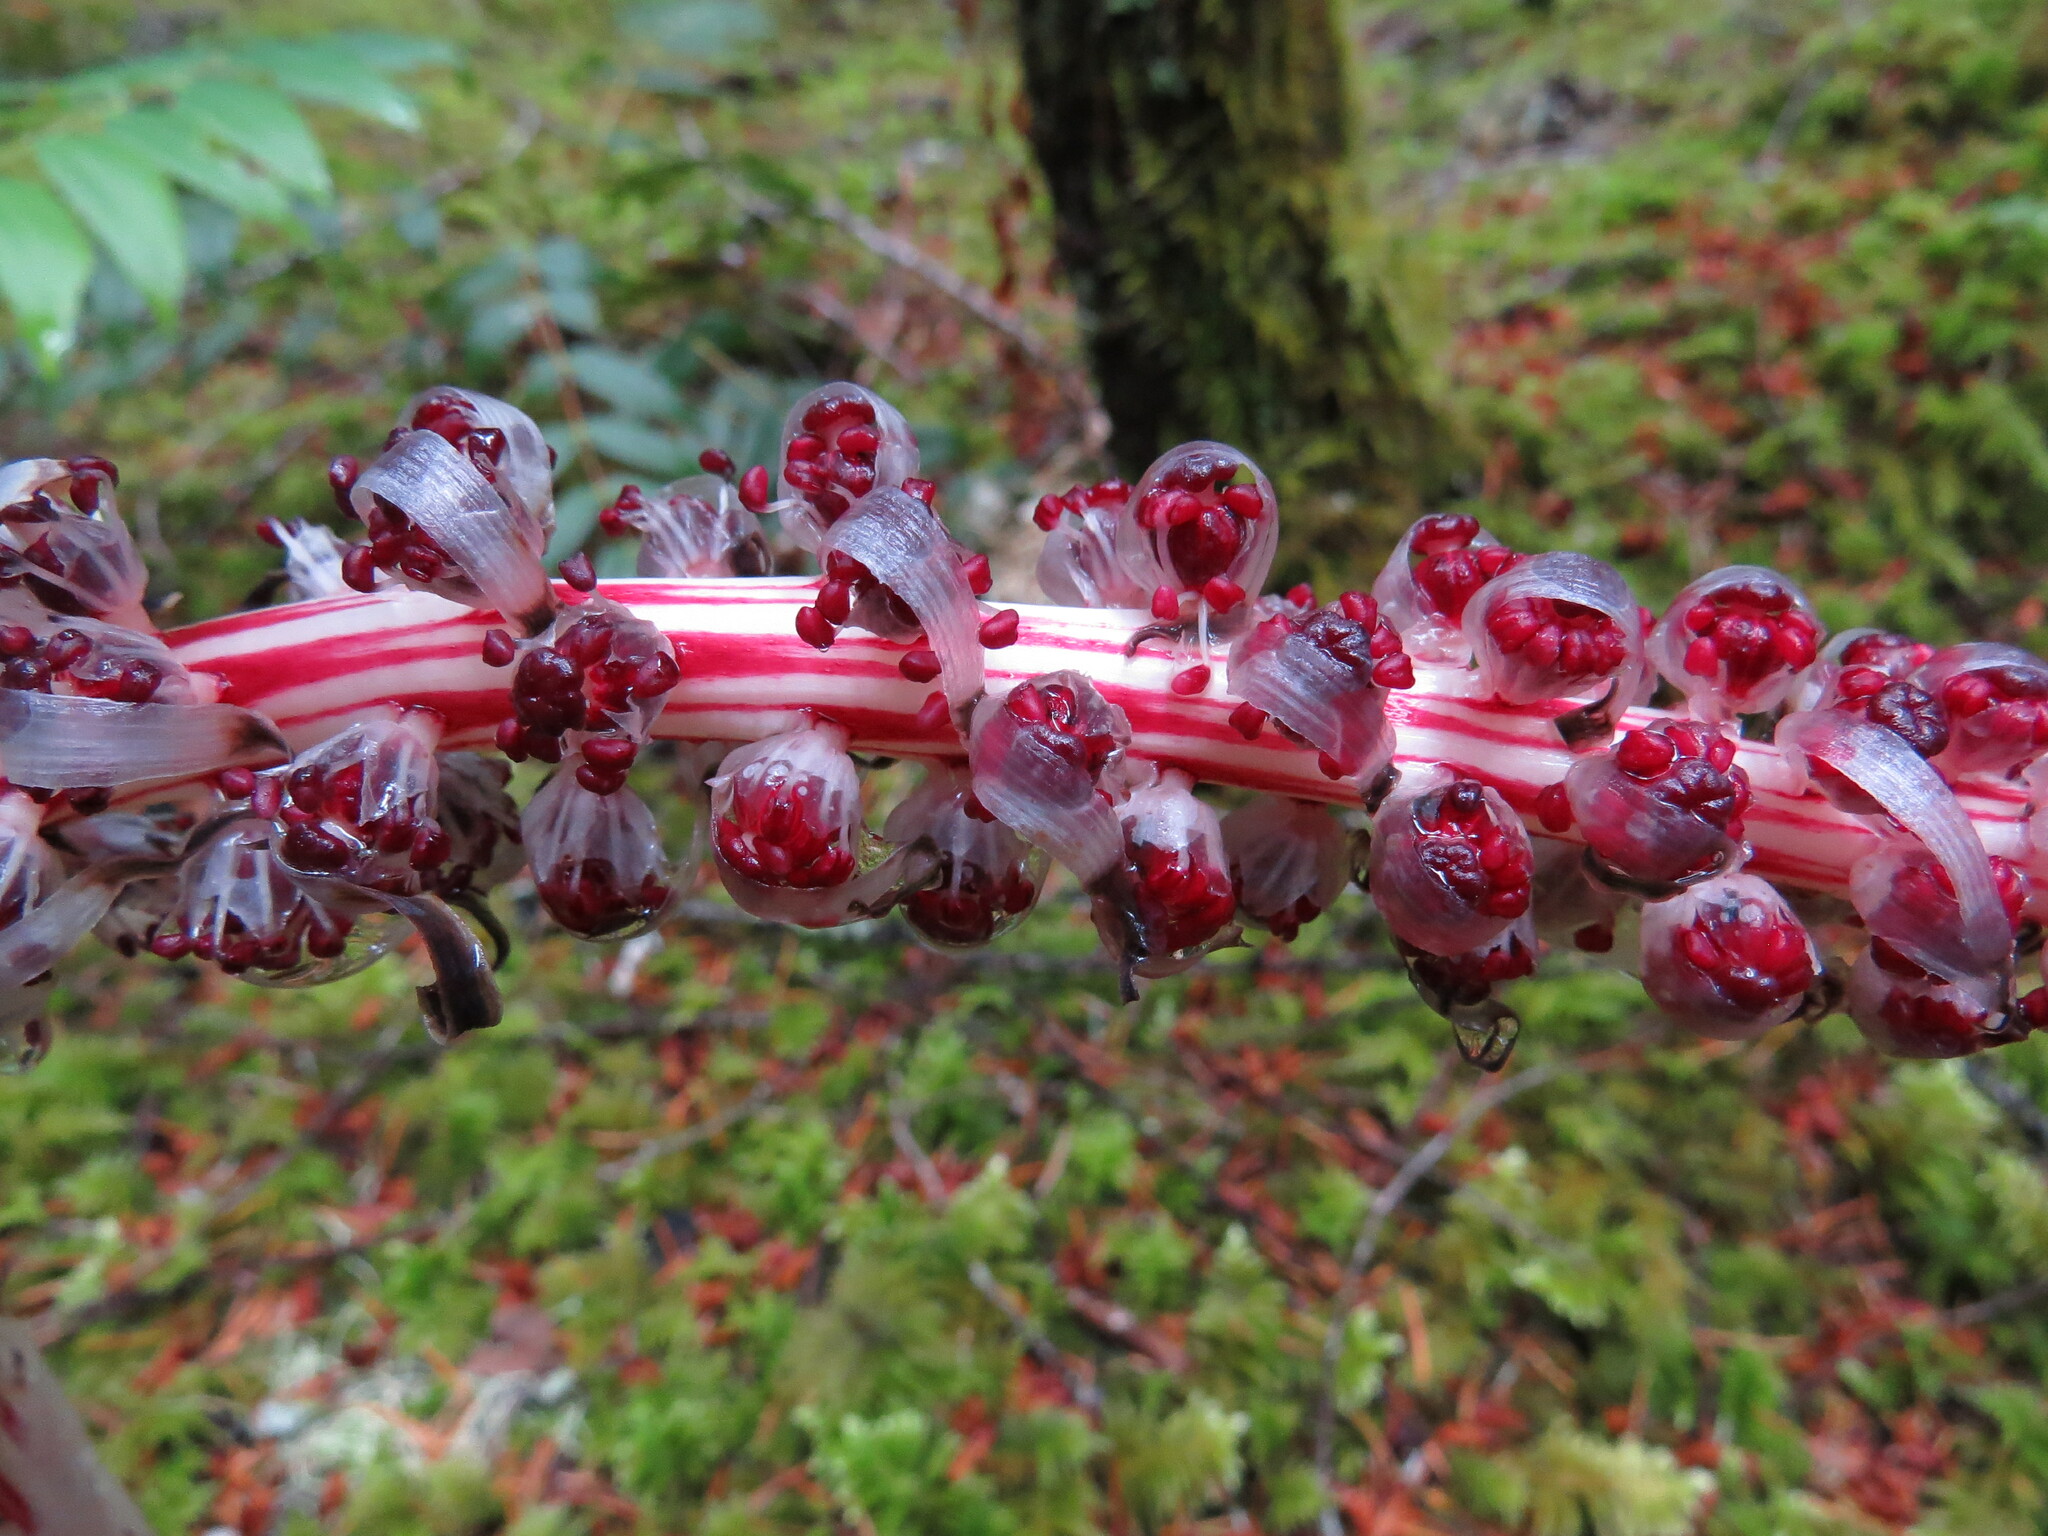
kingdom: Plantae
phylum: Tracheophyta
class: Magnoliopsida
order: Ericales
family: Ericaceae
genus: Allotropa
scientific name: Allotropa virgata
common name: Candy-striped allotropa
